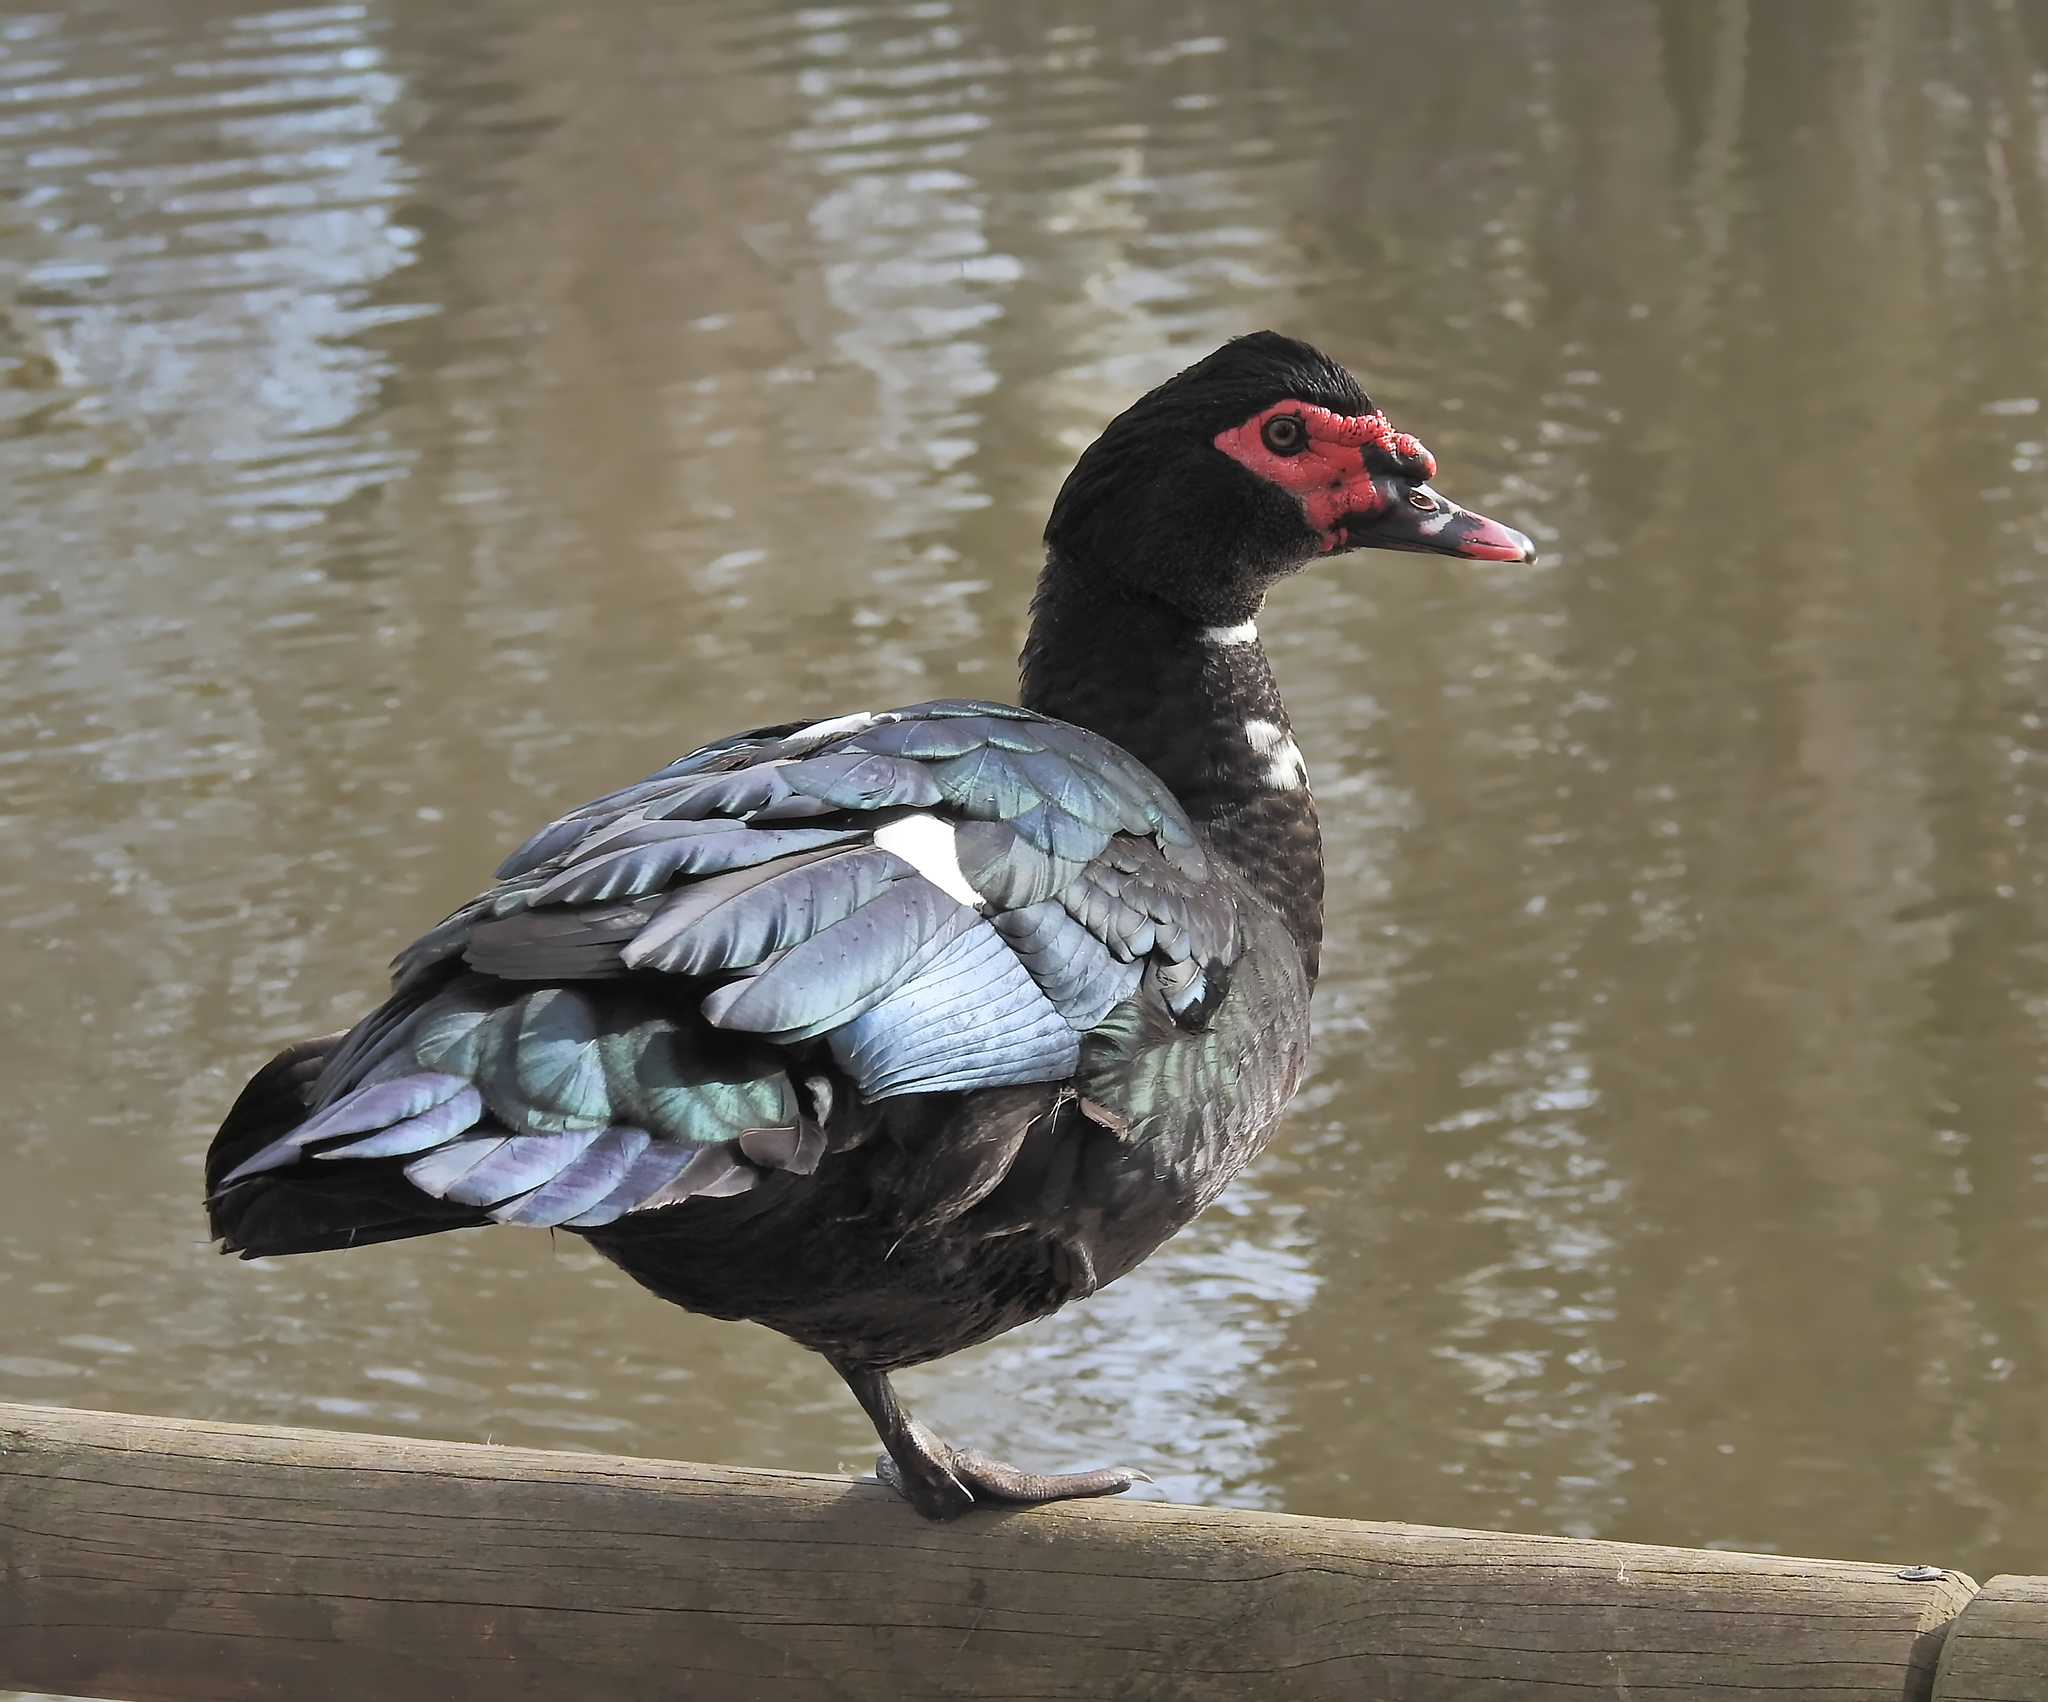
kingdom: Animalia
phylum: Chordata
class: Aves
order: Anseriformes
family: Anatidae
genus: Cairina
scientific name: Cairina moschata
